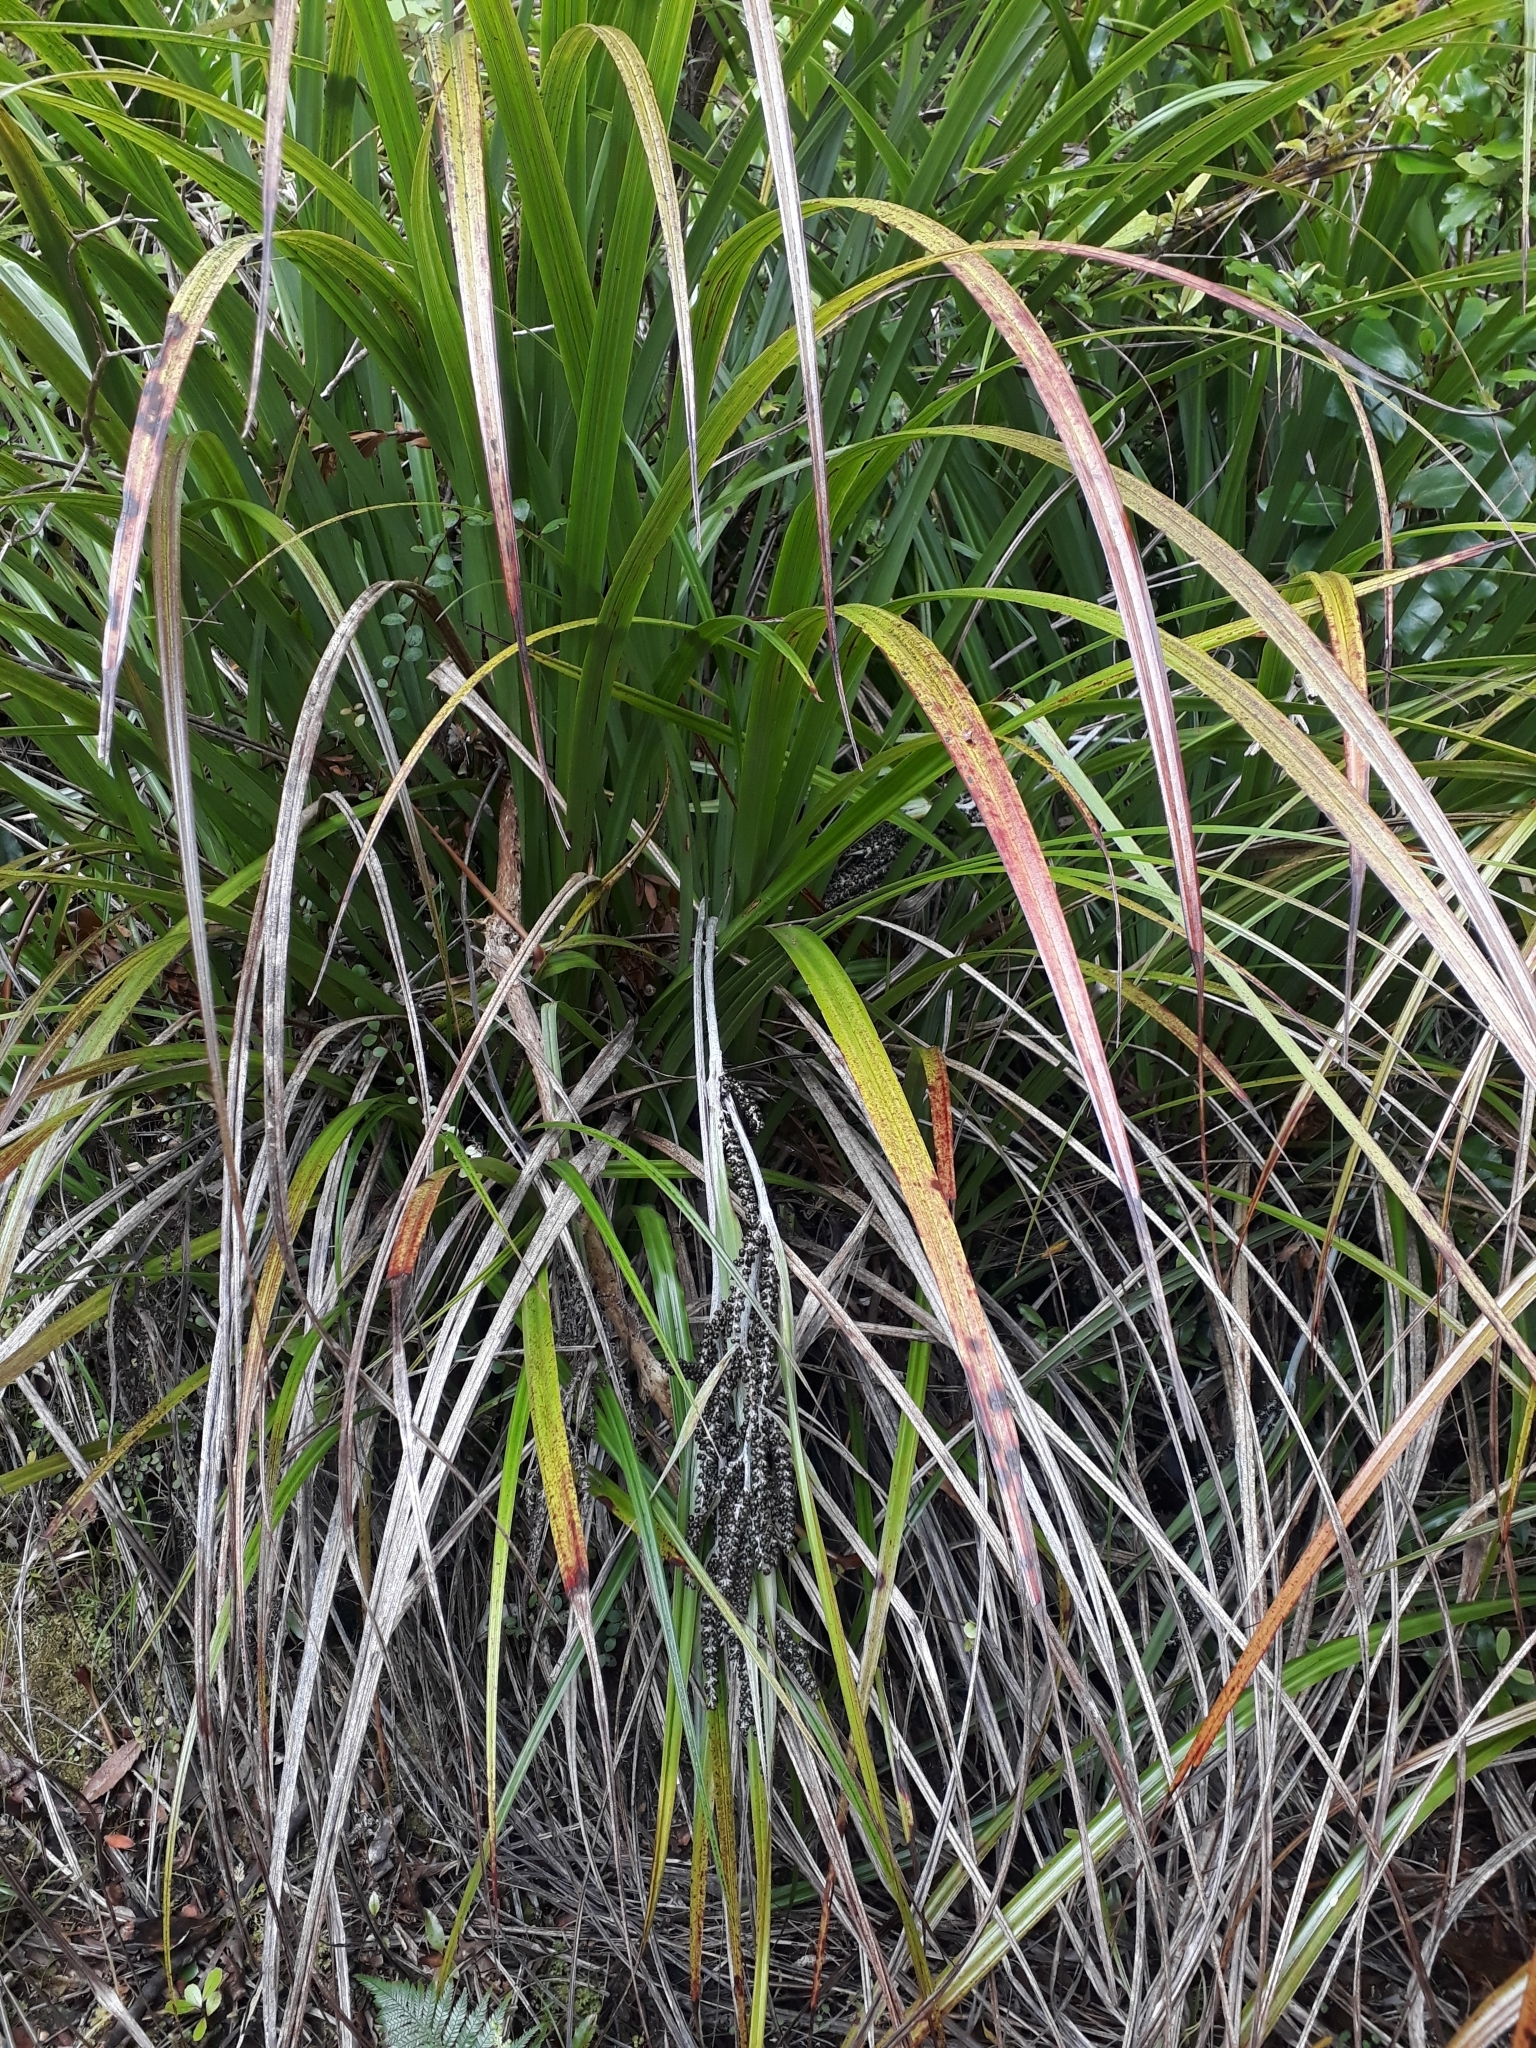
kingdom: Plantae
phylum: Tracheophyta
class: Liliopsida
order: Asparagales
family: Asteliaceae
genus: Astelia
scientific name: Astelia trinervia
